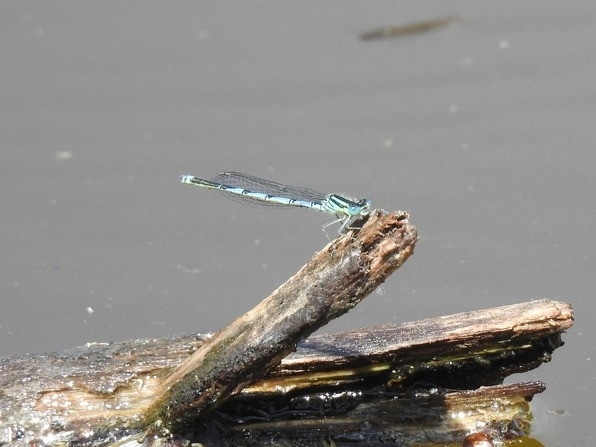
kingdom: Animalia
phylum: Arthropoda
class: Insecta
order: Odonata
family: Coenagrionidae
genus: Erythromma
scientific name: Erythromma lindenii
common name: Blue-eye
